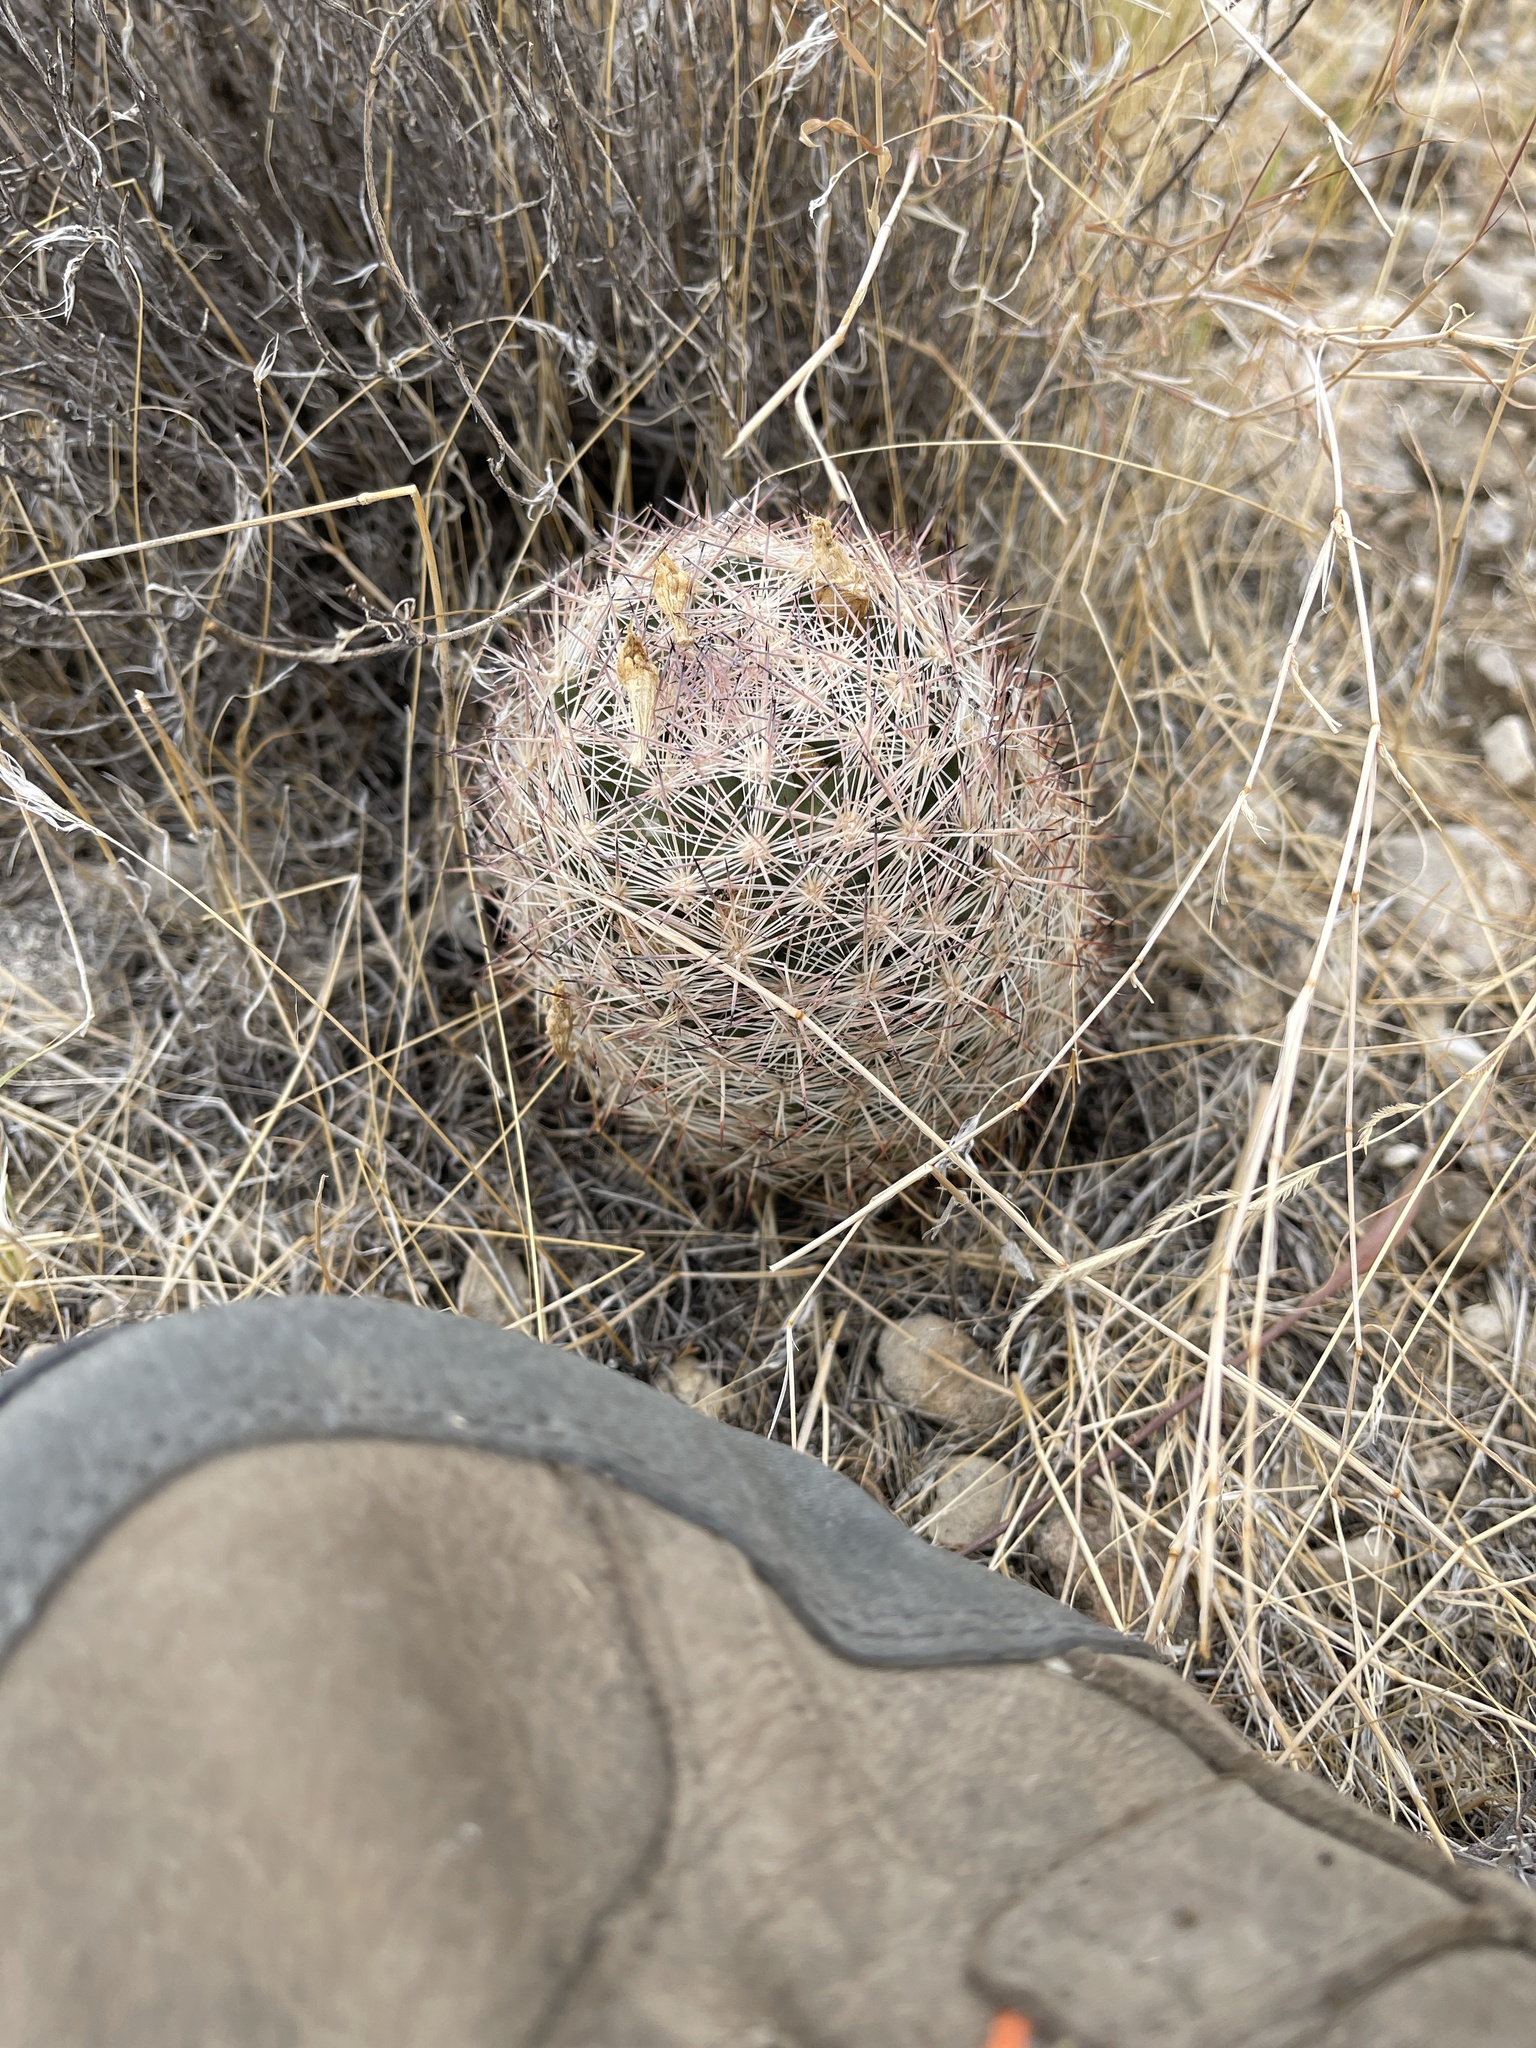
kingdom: Plantae
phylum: Tracheophyta
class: Magnoliopsida
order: Caryophyllales
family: Cactaceae
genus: Pelecyphora
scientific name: Pelecyphora dasyacantha
